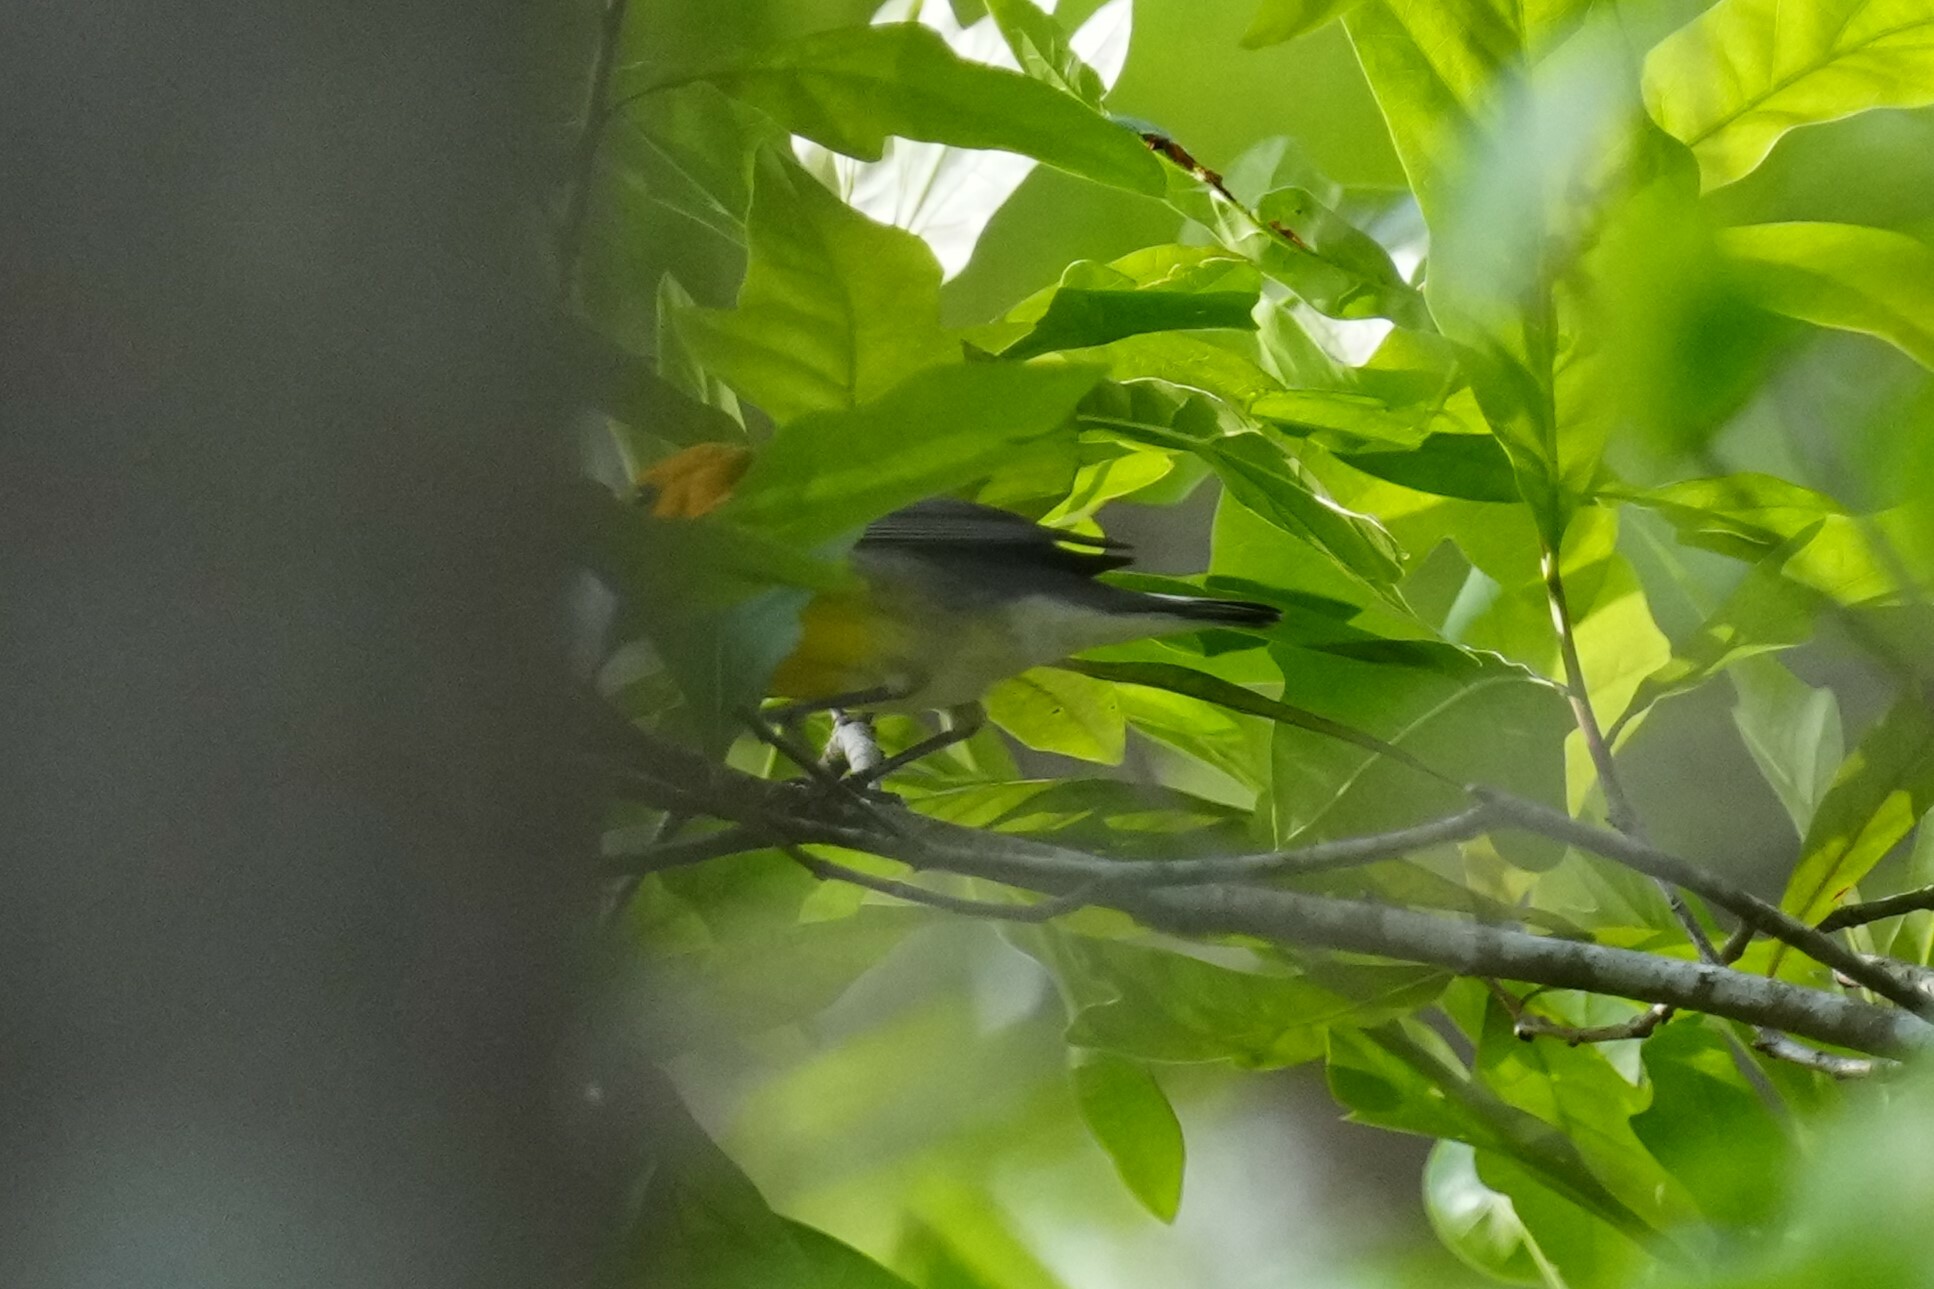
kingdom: Animalia
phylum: Chordata
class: Aves
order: Passeriformes
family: Parulidae
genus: Protonotaria
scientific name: Protonotaria citrea
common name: Prothonotary warbler
